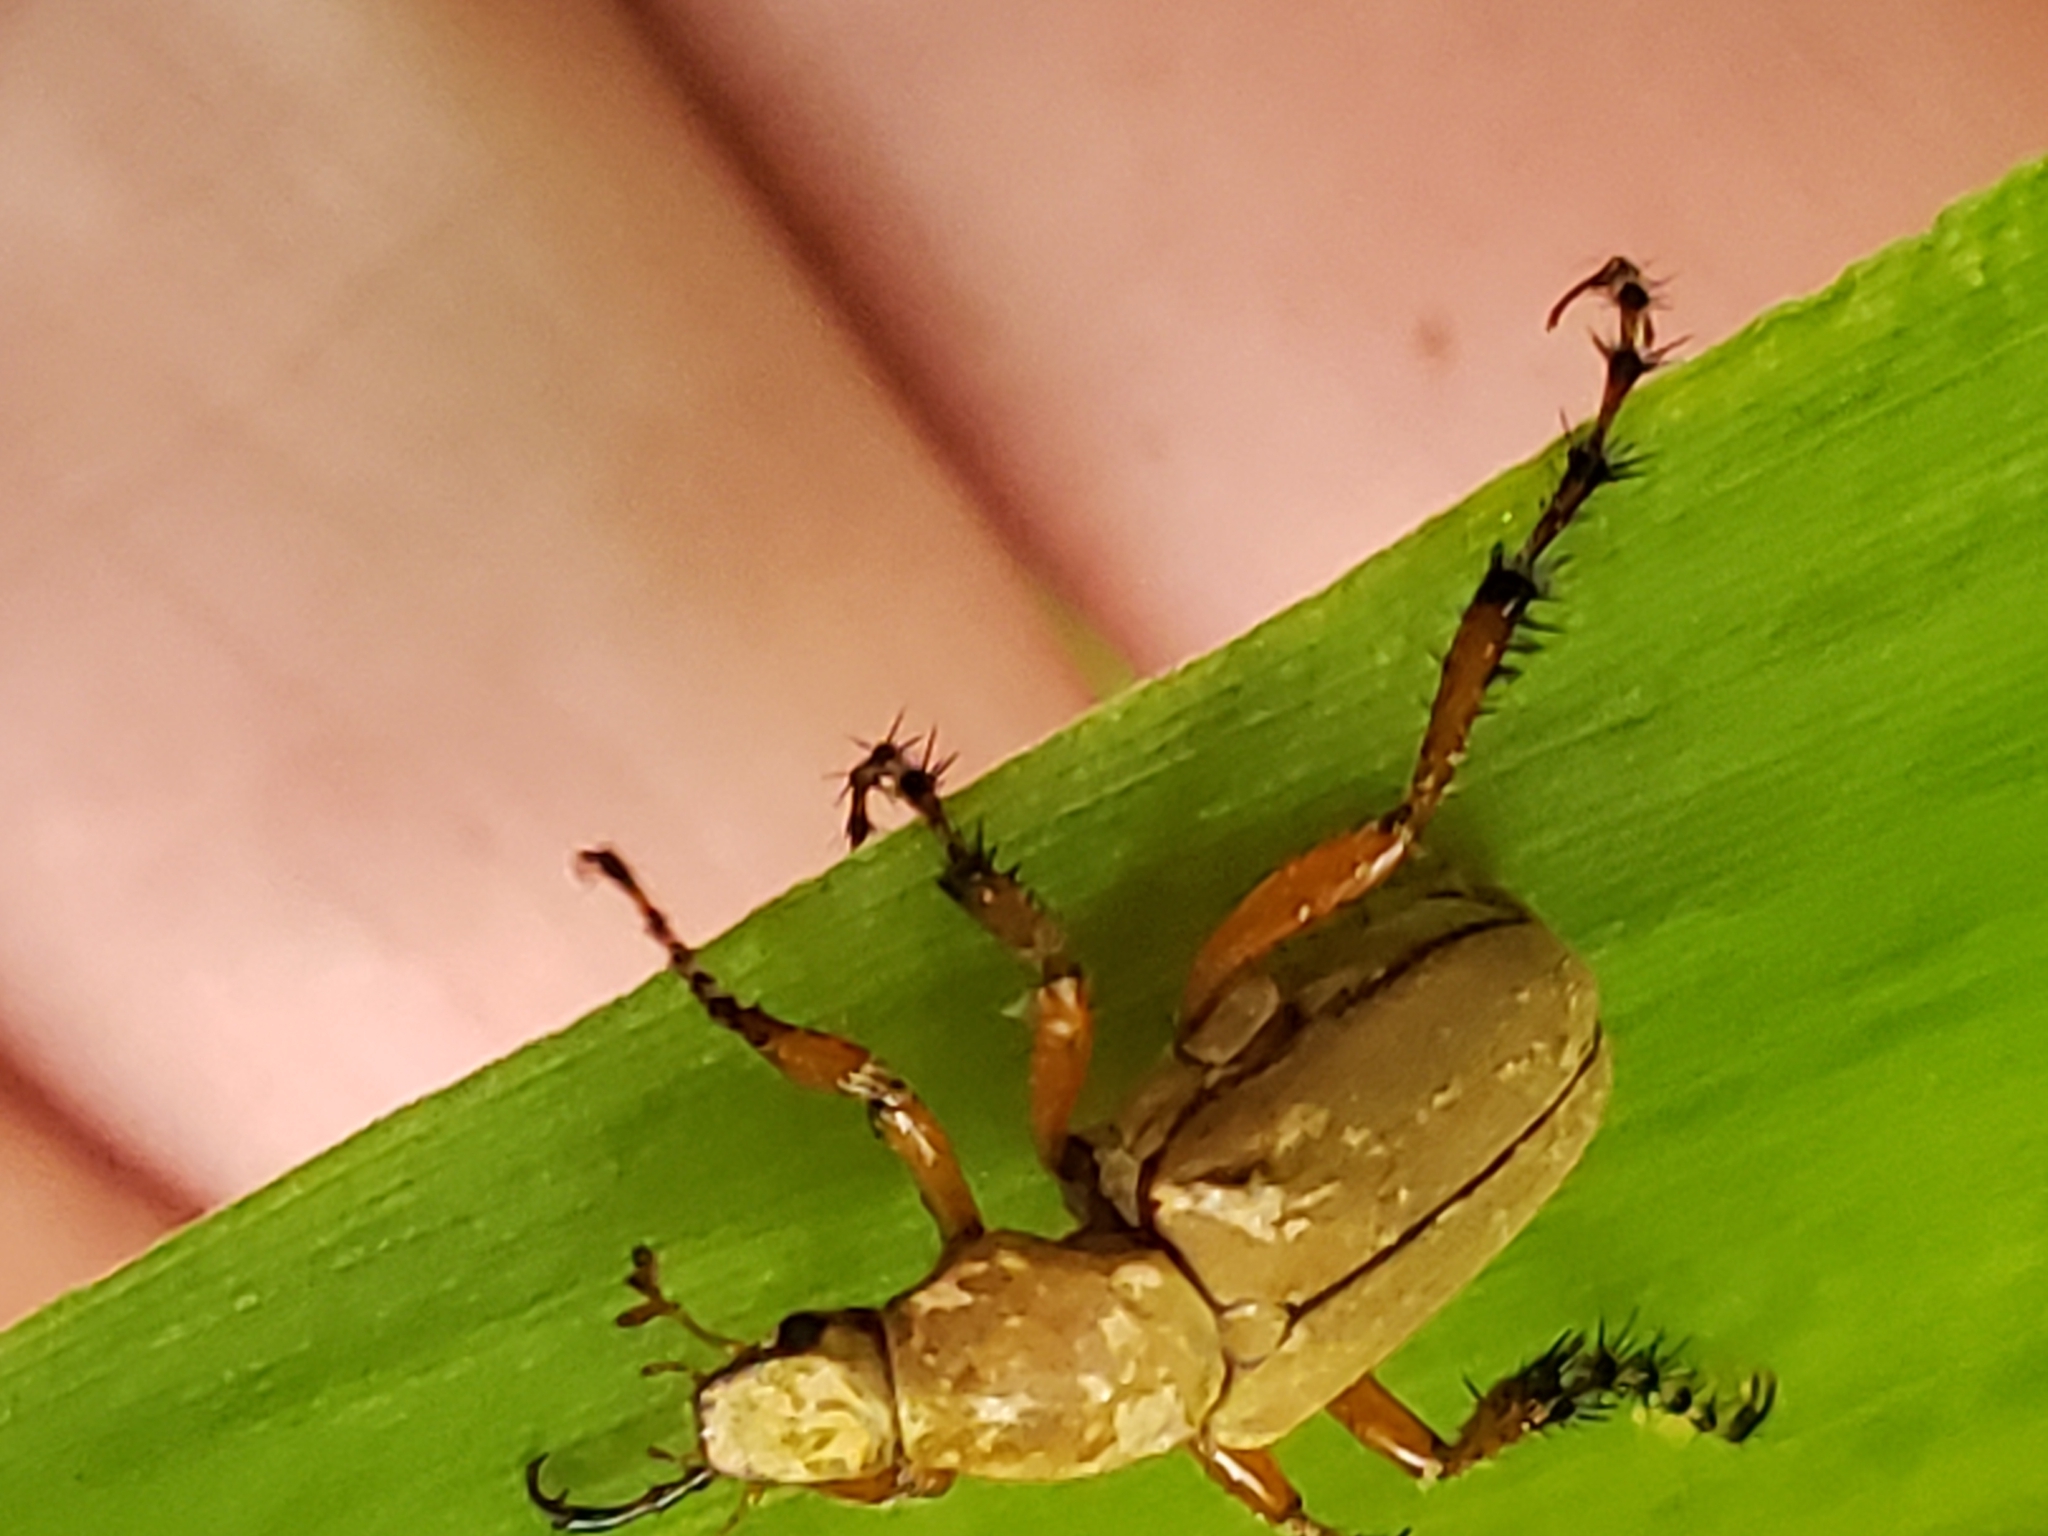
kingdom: Animalia
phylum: Arthropoda
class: Insecta
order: Coleoptera
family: Scarabaeidae
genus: Macrodactylus
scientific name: Macrodactylus subspinosus
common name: American rose chafer
